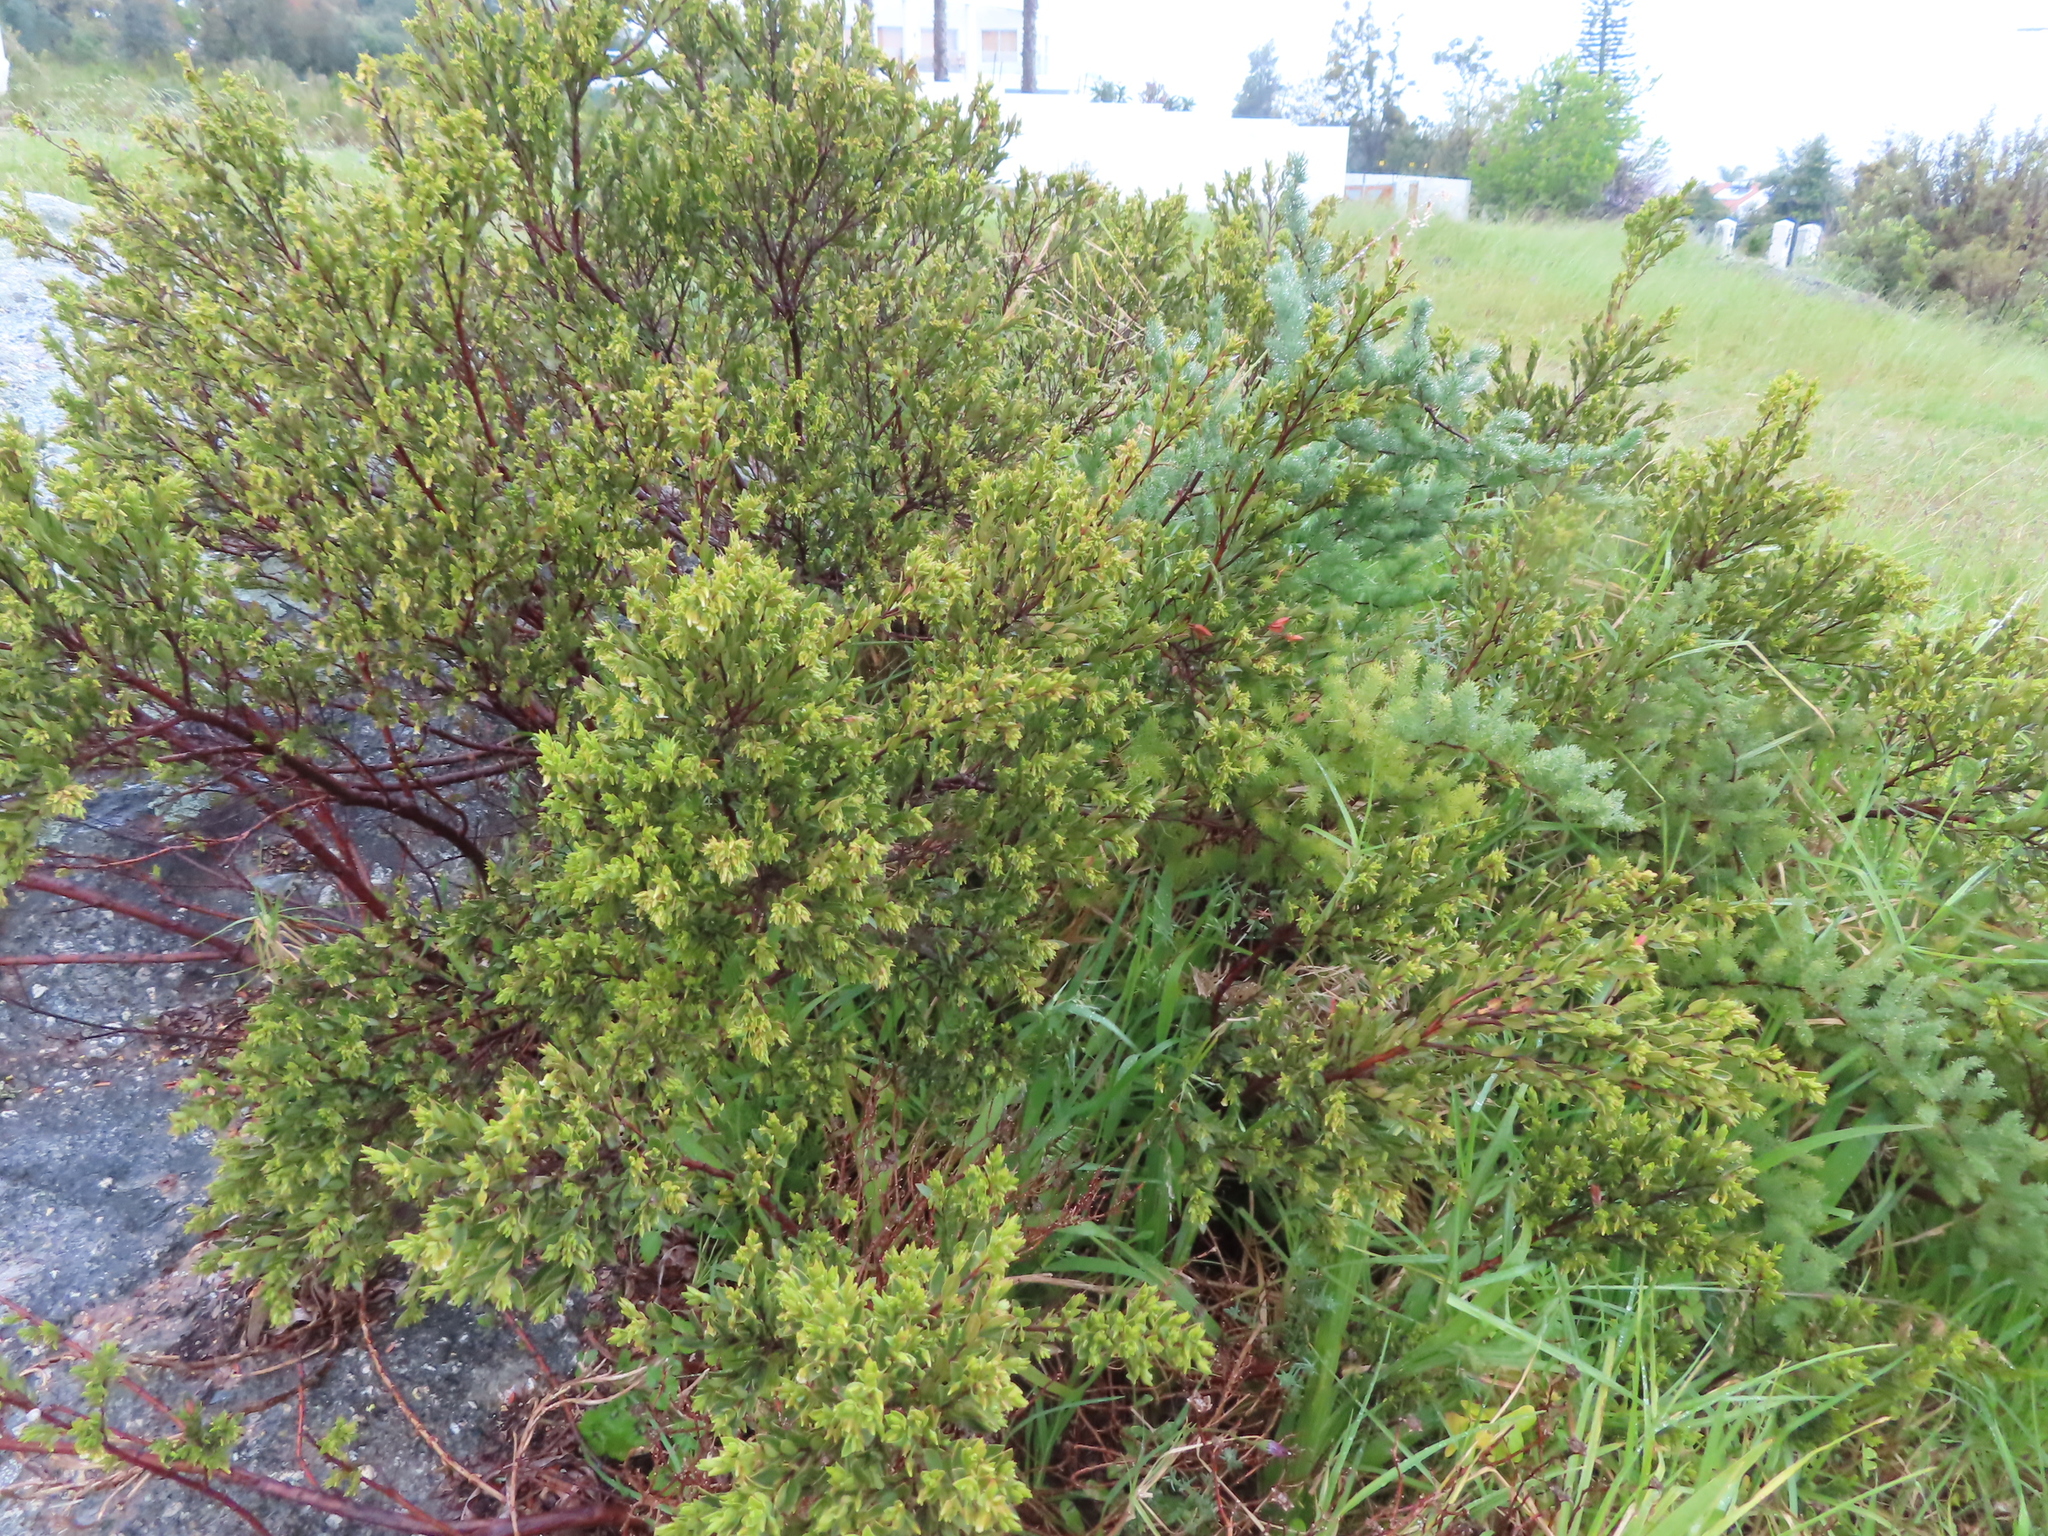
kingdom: Plantae
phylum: Tracheophyta
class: Magnoliopsida
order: Ericales
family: Ebenaceae
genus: Diospyros
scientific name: Diospyros glabra
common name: Fynbos star apple
